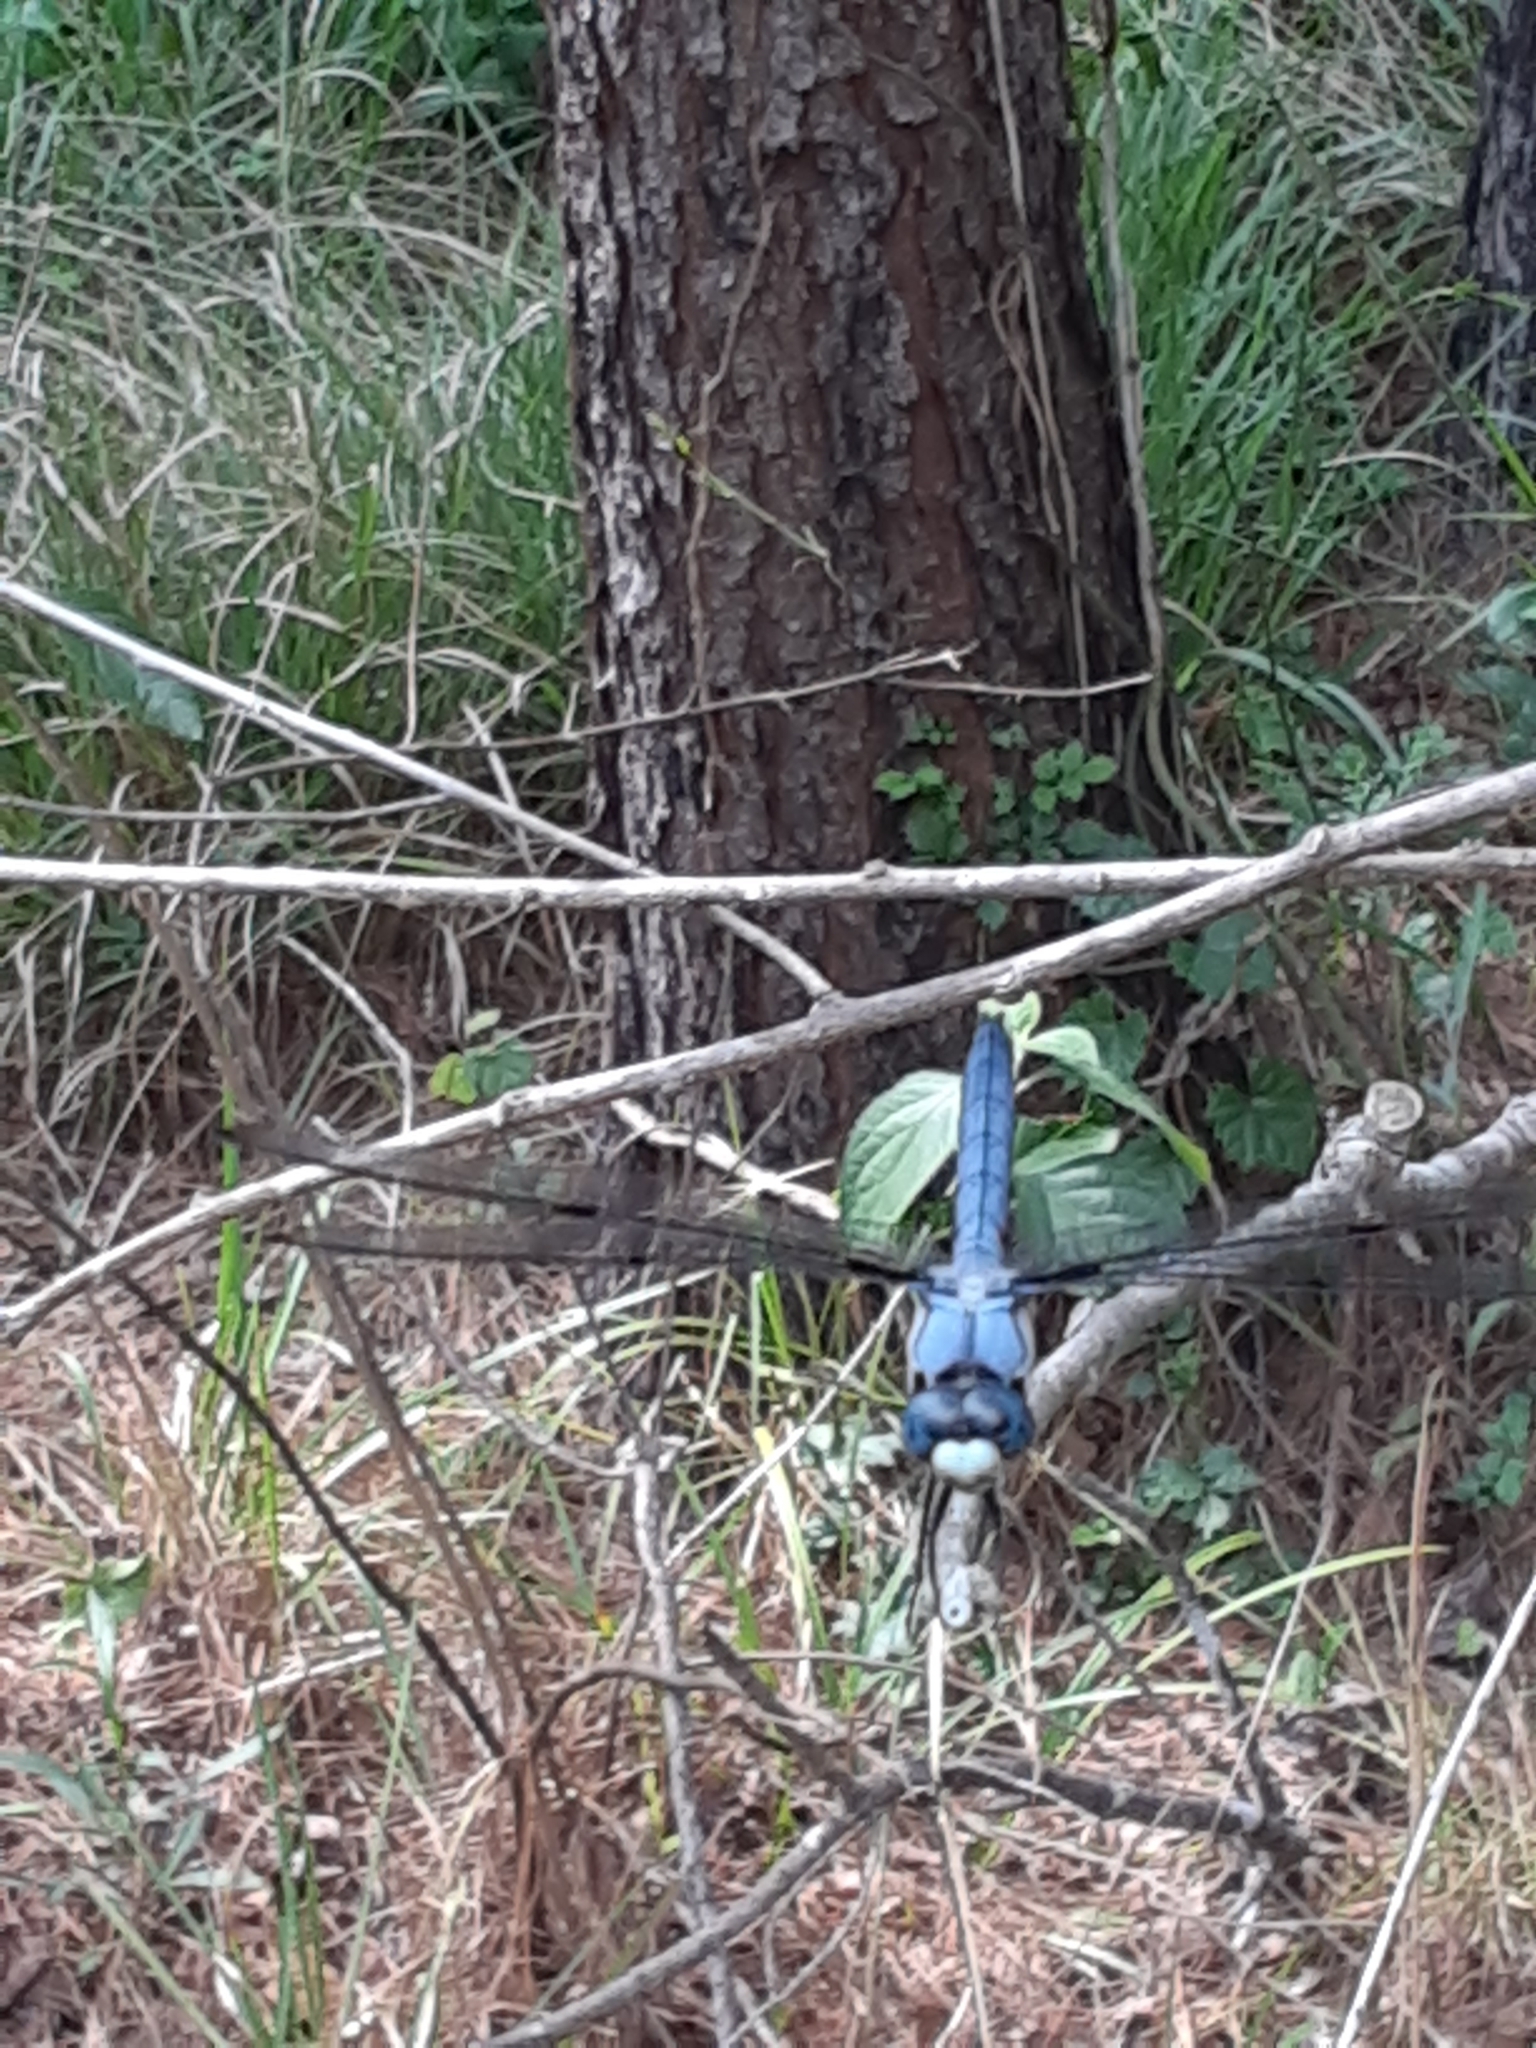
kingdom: Animalia
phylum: Arthropoda
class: Insecta
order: Odonata
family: Libellulidae
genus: Libellula
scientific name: Libellula vibrans
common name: Great blue skimmer
